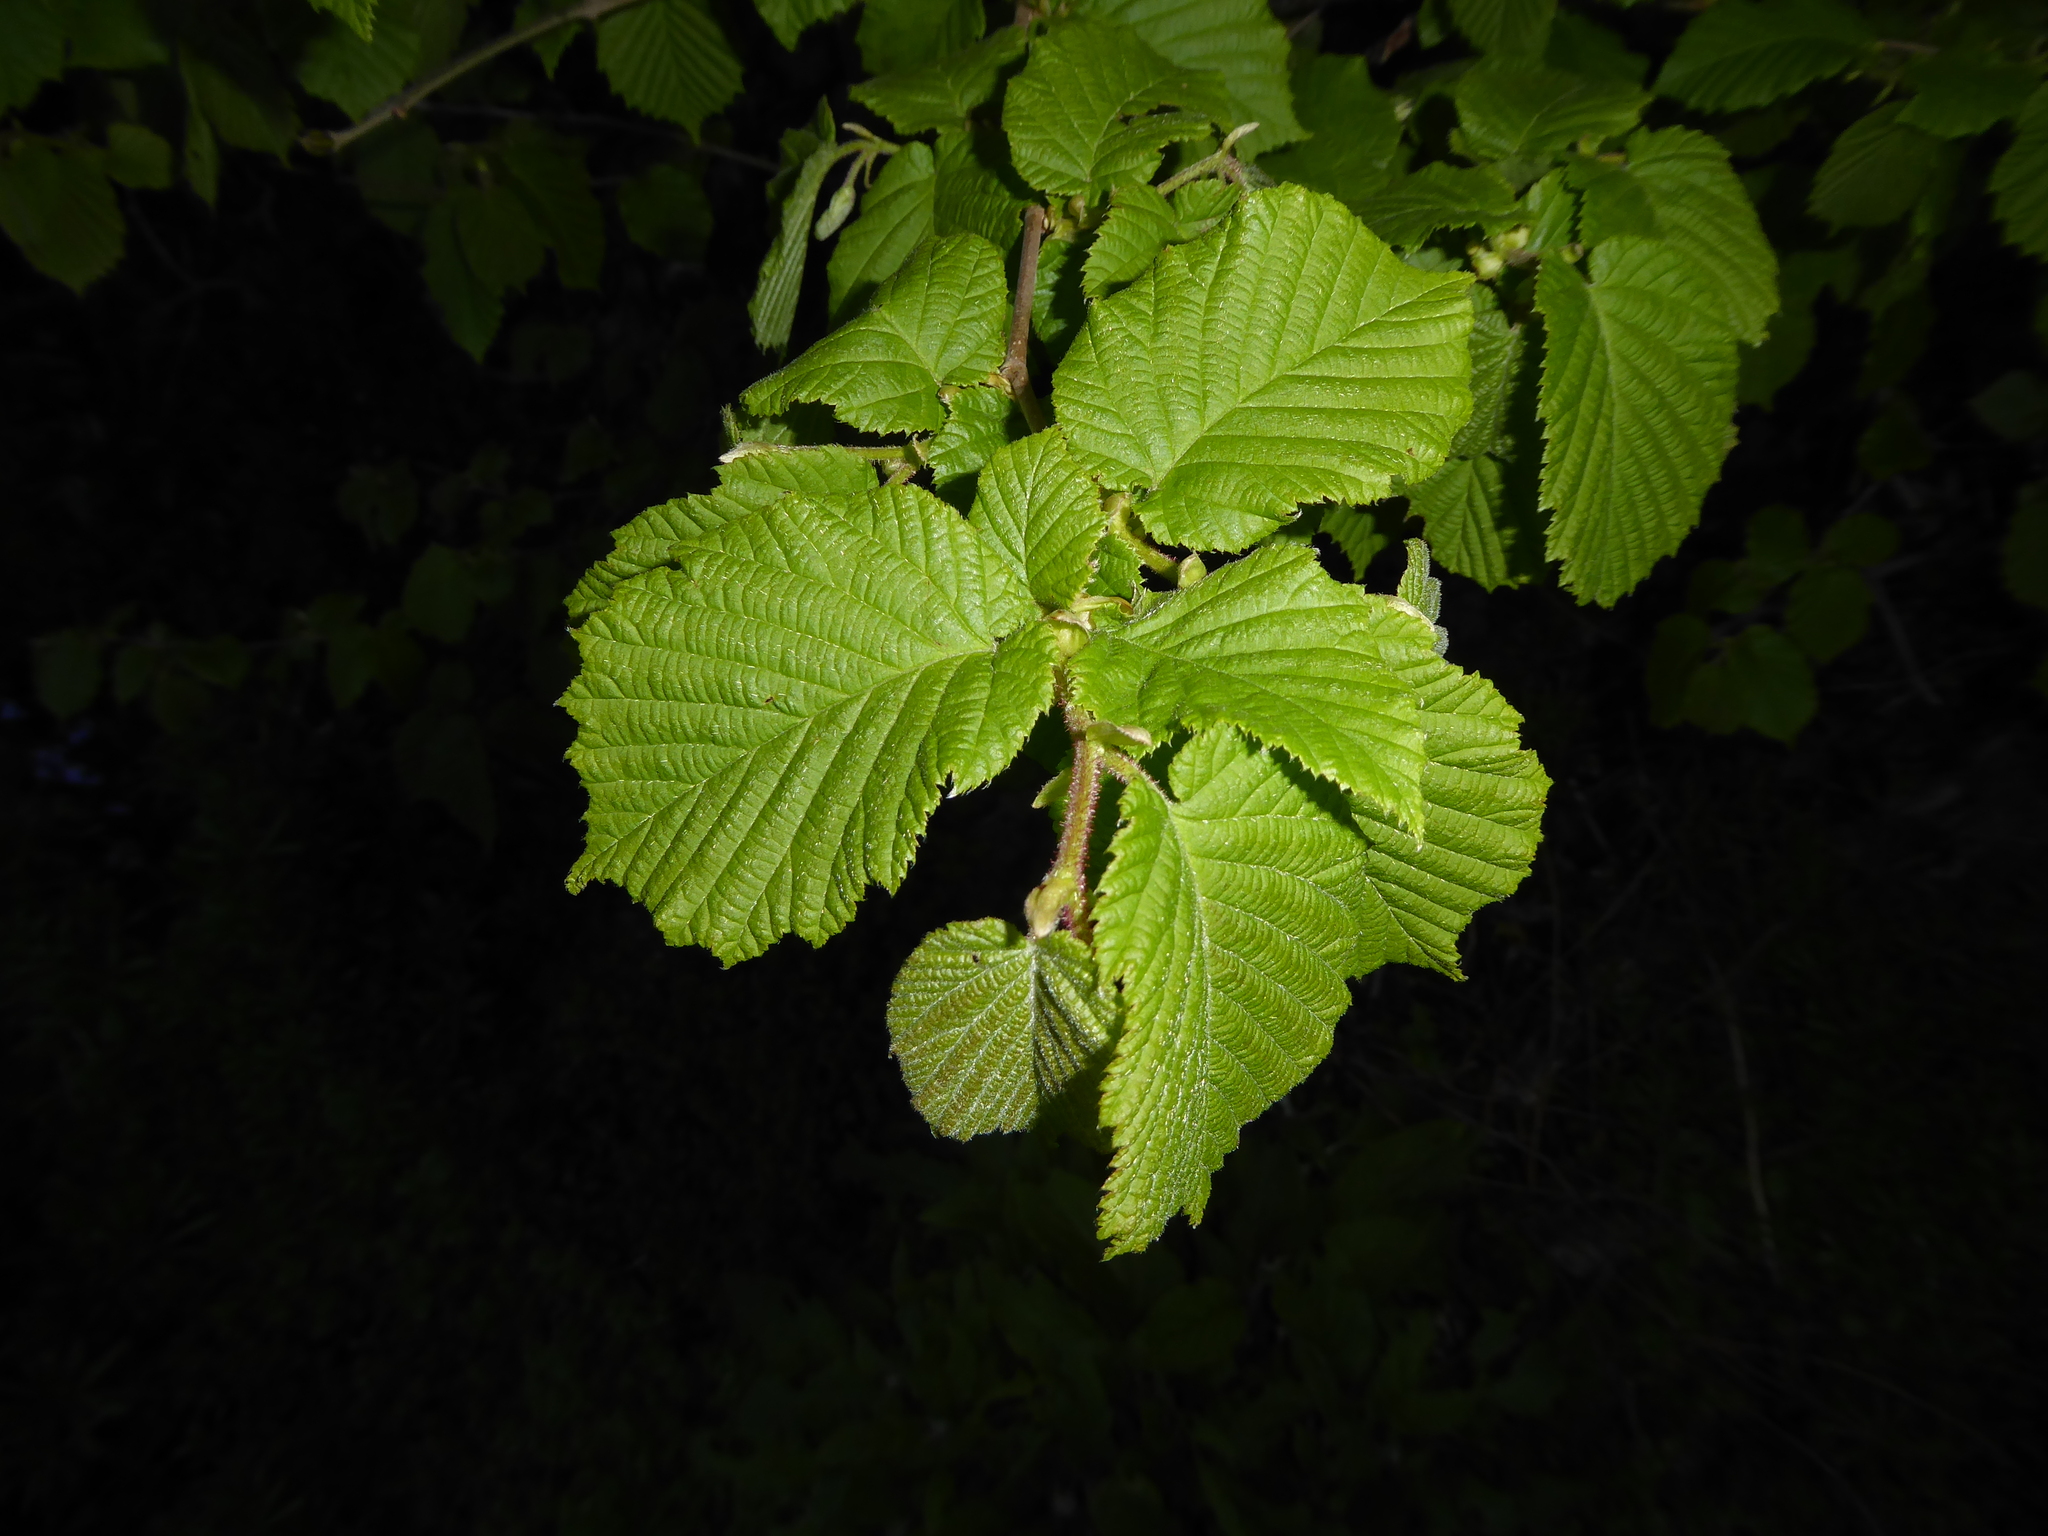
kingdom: Plantae
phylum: Tracheophyta
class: Magnoliopsida
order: Fagales
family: Betulaceae
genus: Corylus
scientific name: Corylus avellana
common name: European hazel
